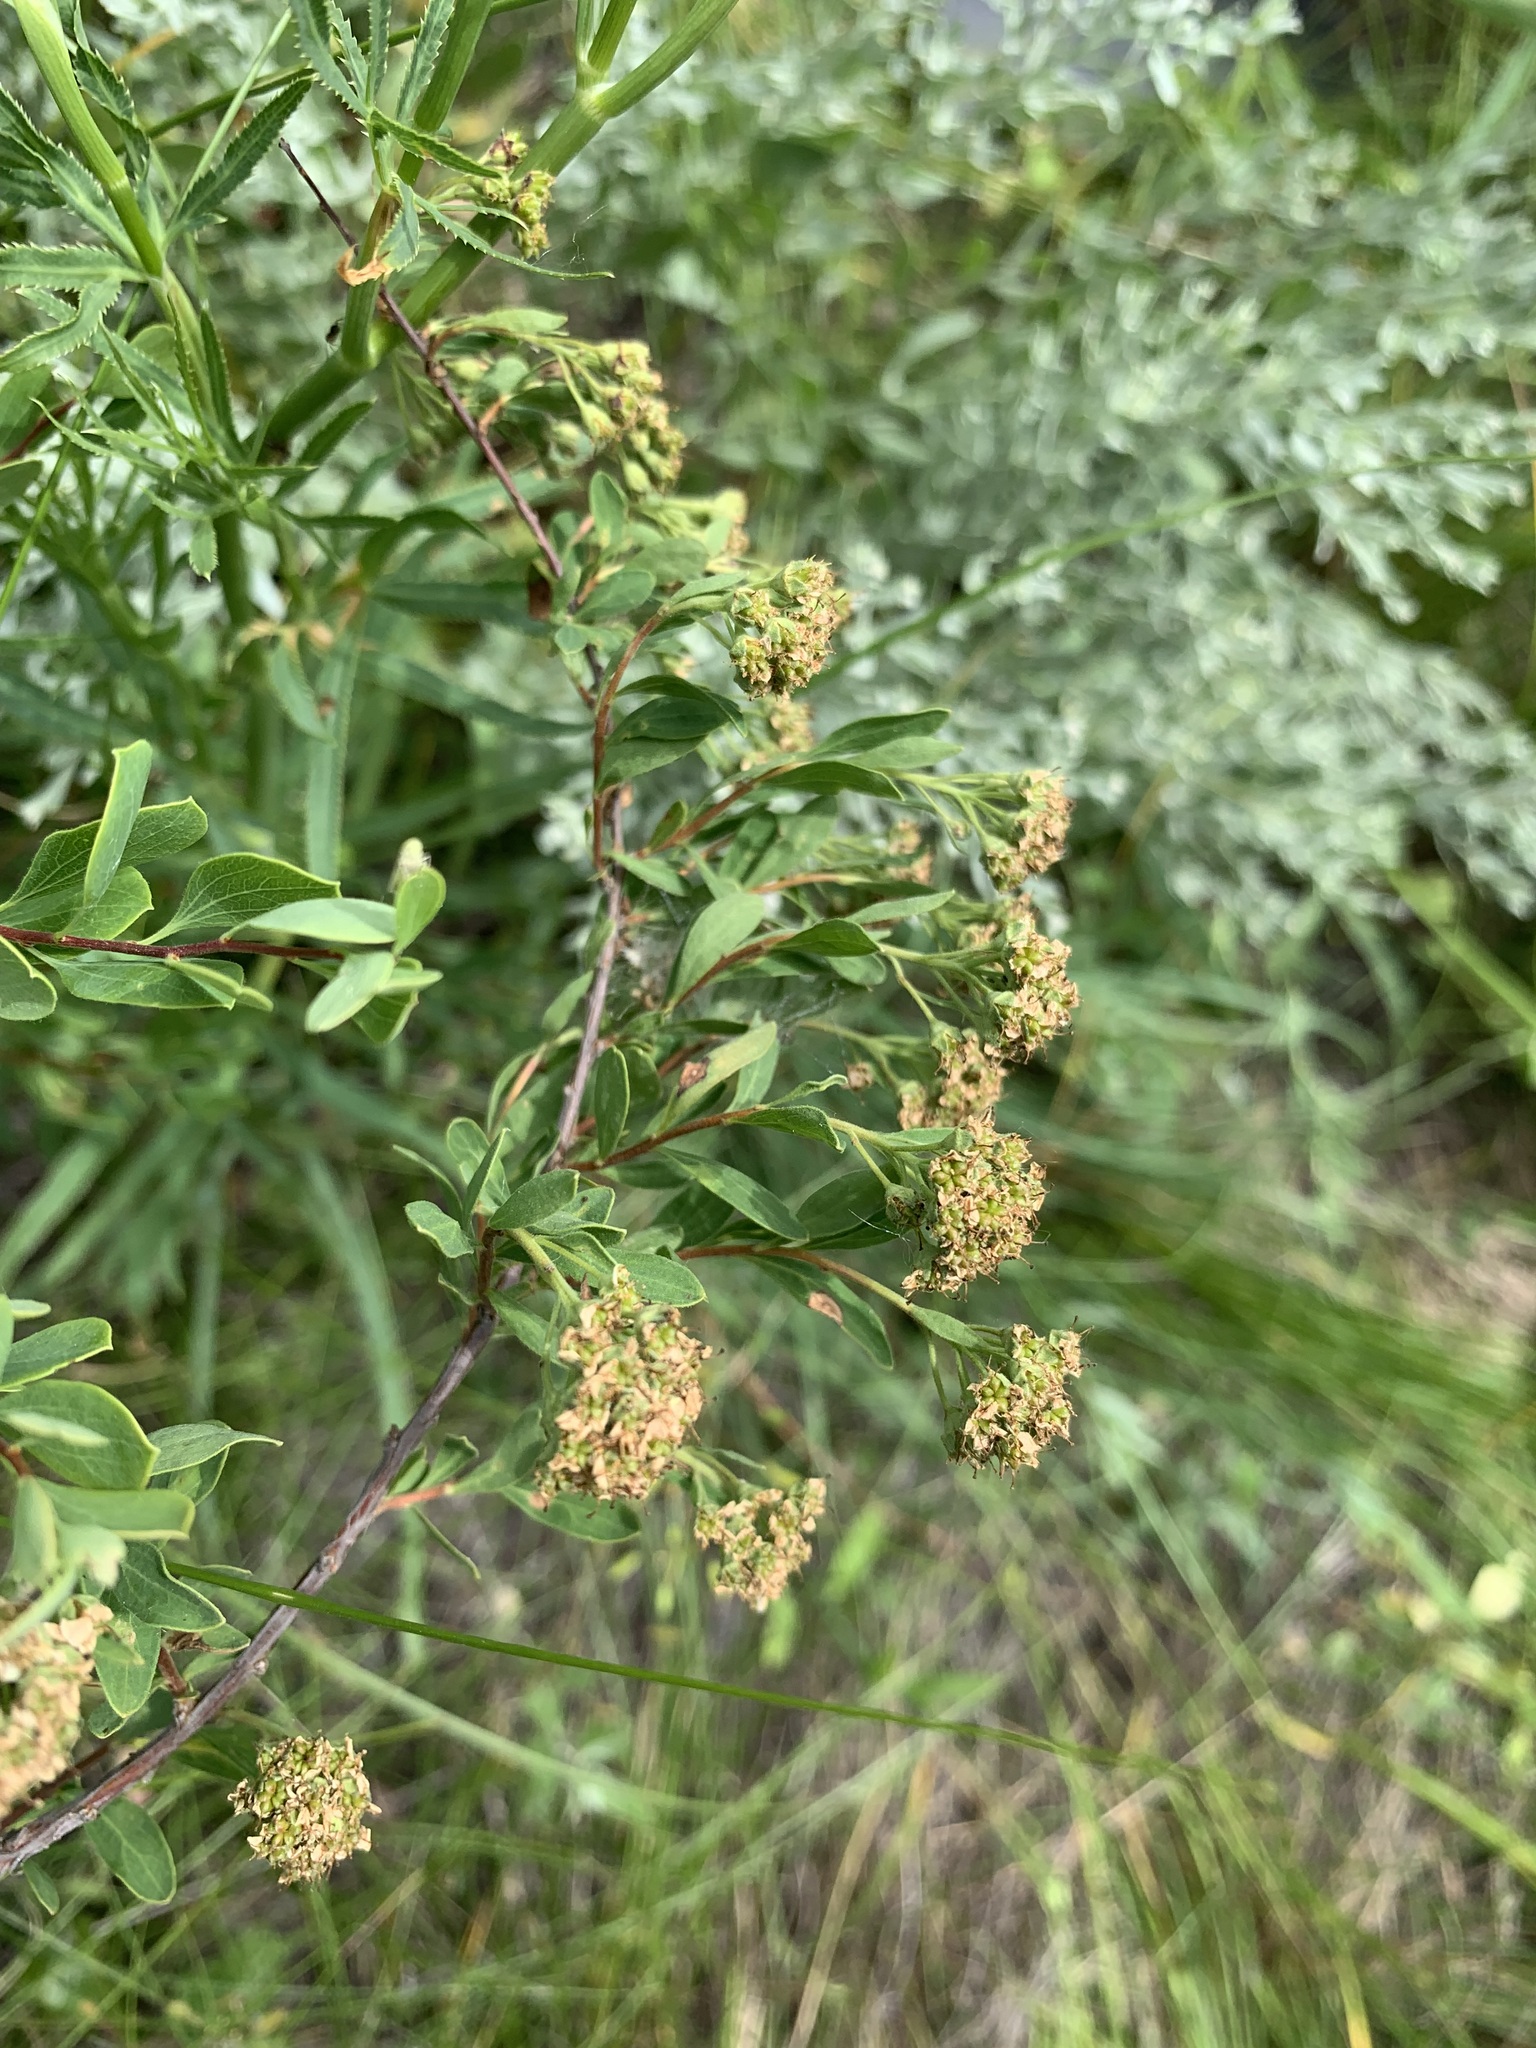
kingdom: Plantae
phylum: Tracheophyta
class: Magnoliopsida
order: Rosales
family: Rosaceae
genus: Spiraea
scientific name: Spiraea crenata
